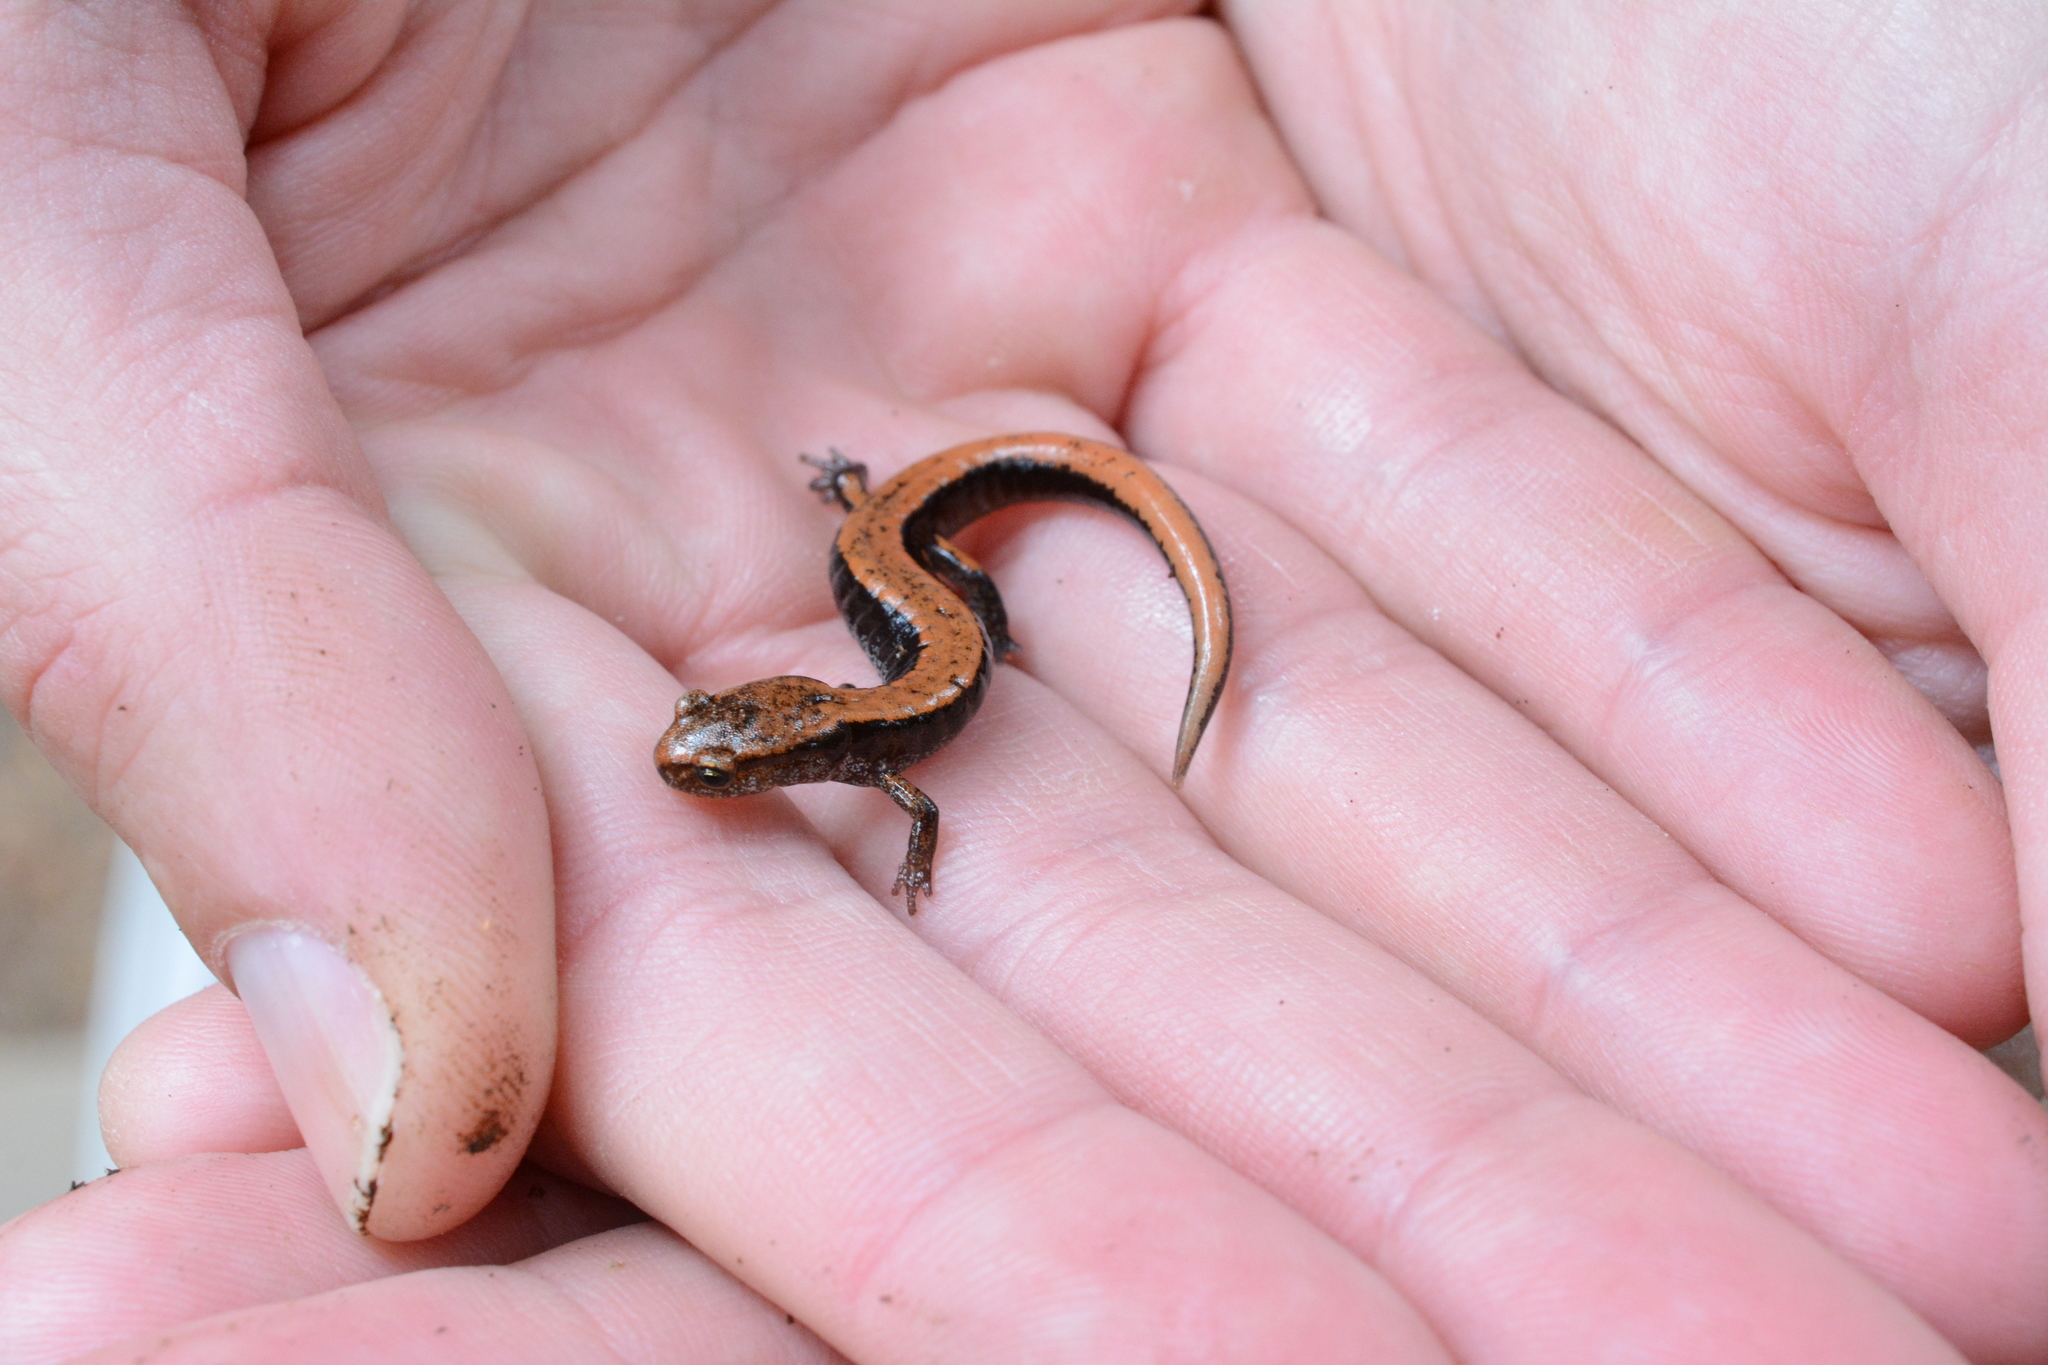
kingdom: Animalia
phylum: Chordata
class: Amphibia
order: Caudata
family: Plethodontidae
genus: Plethodon
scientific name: Plethodon vehiculum
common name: Western red-backed salamander
